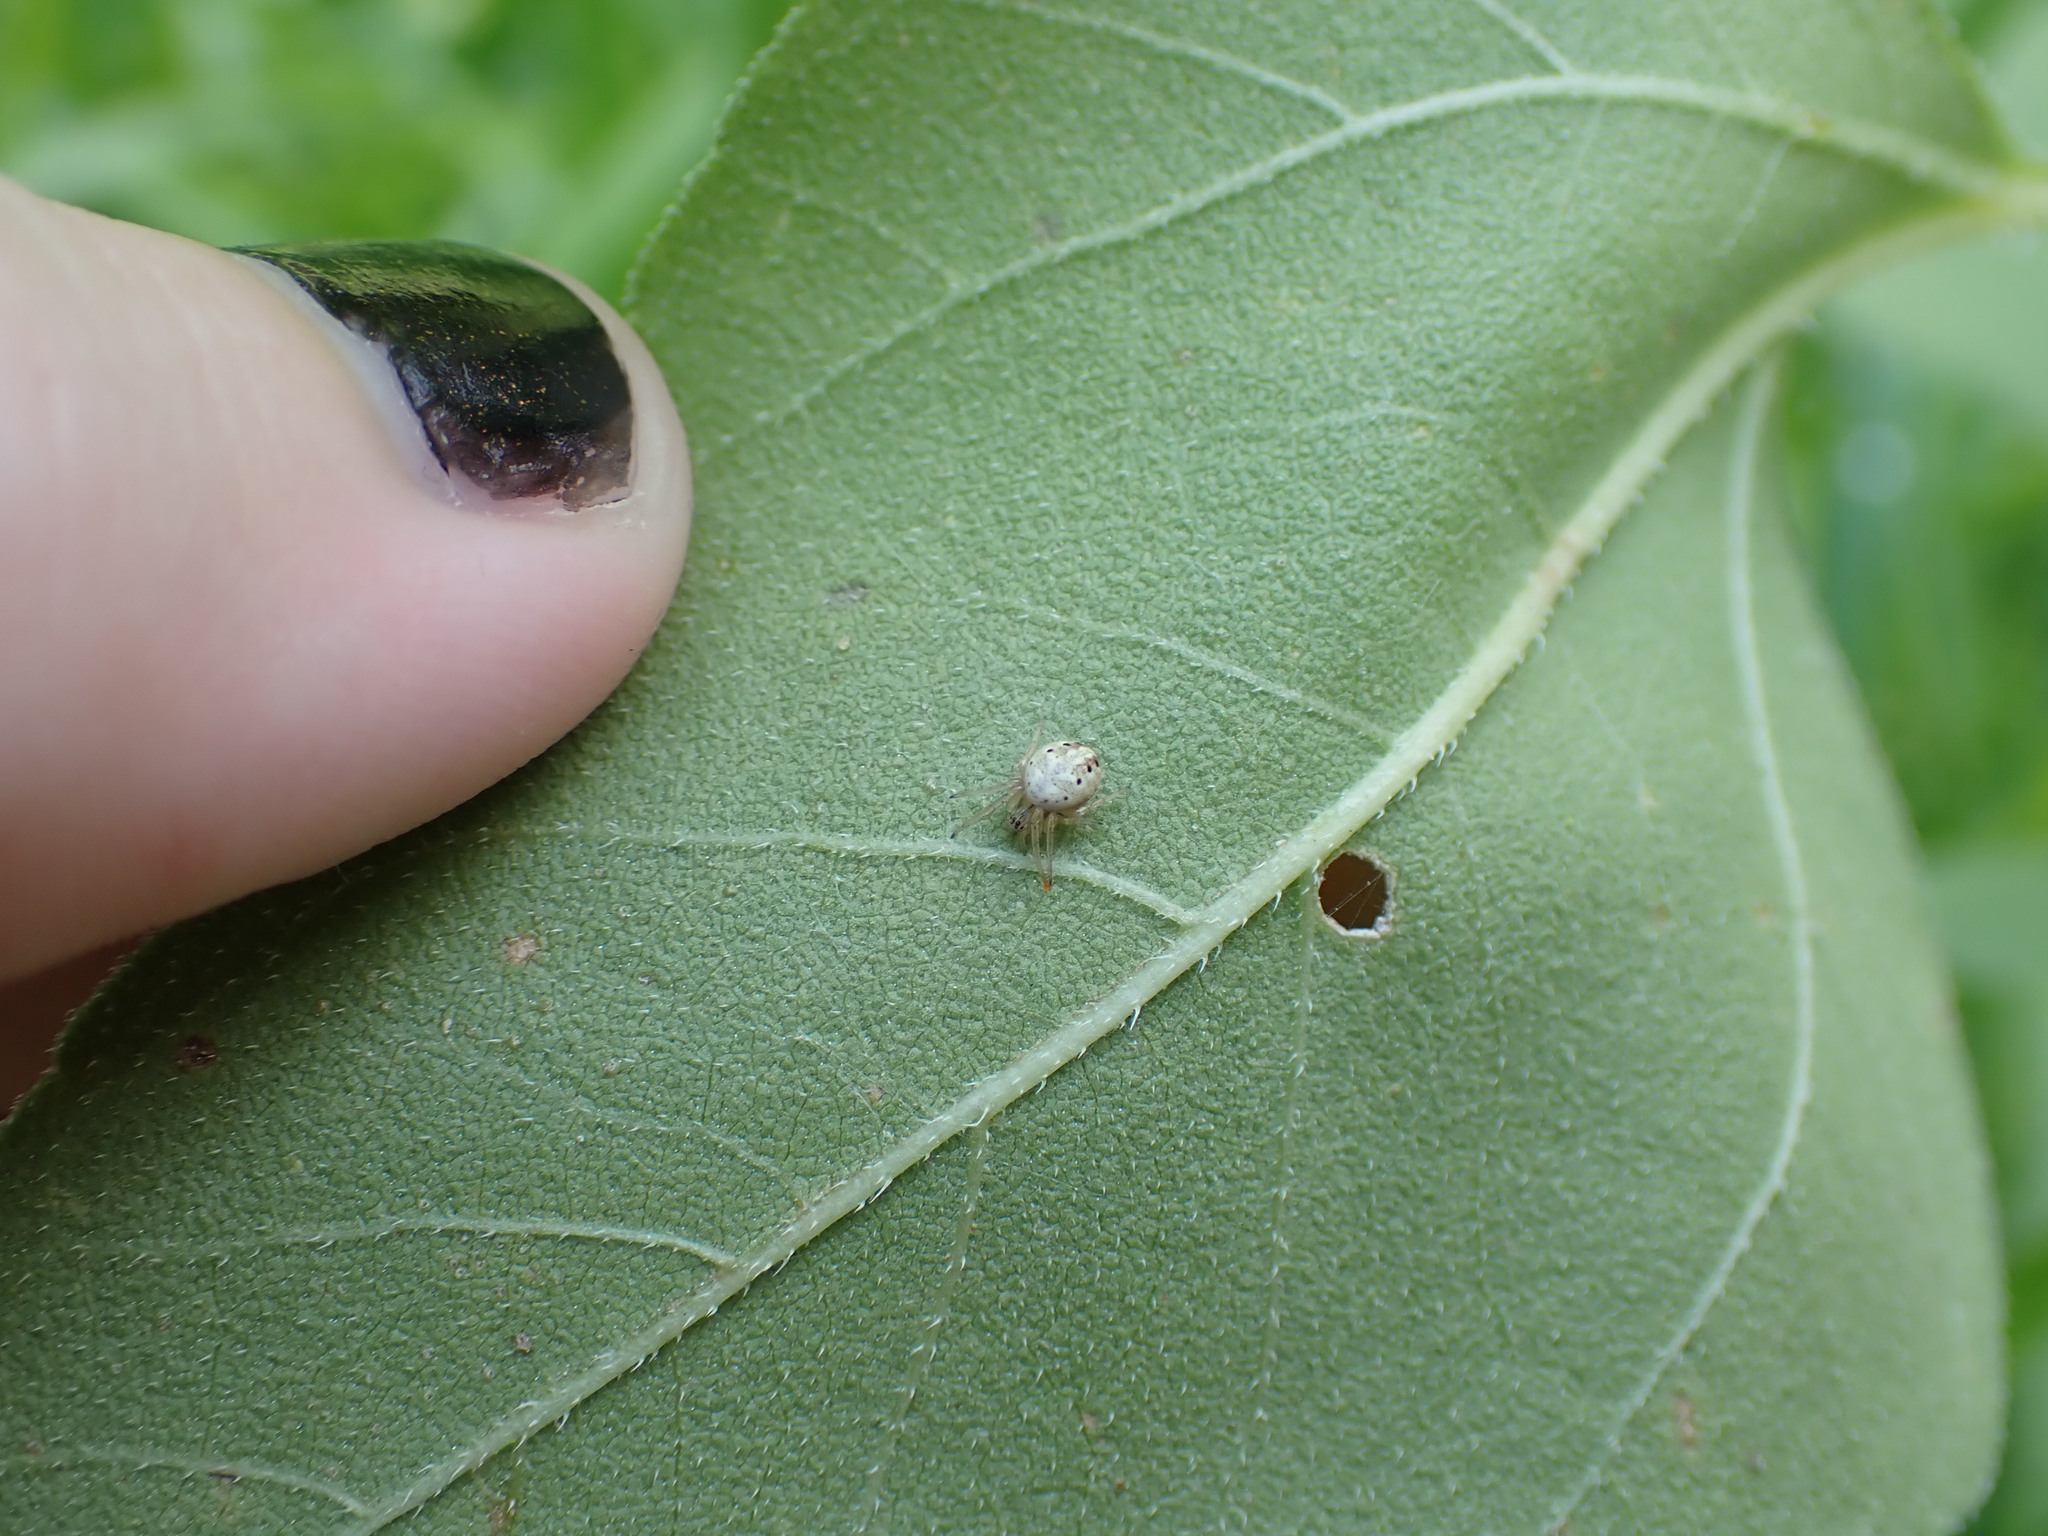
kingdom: Animalia
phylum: Arthropoda
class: Arachnida
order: Araneae
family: Araneidae
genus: Neoscona
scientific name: Neoscona arabesca
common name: Orb weavers
